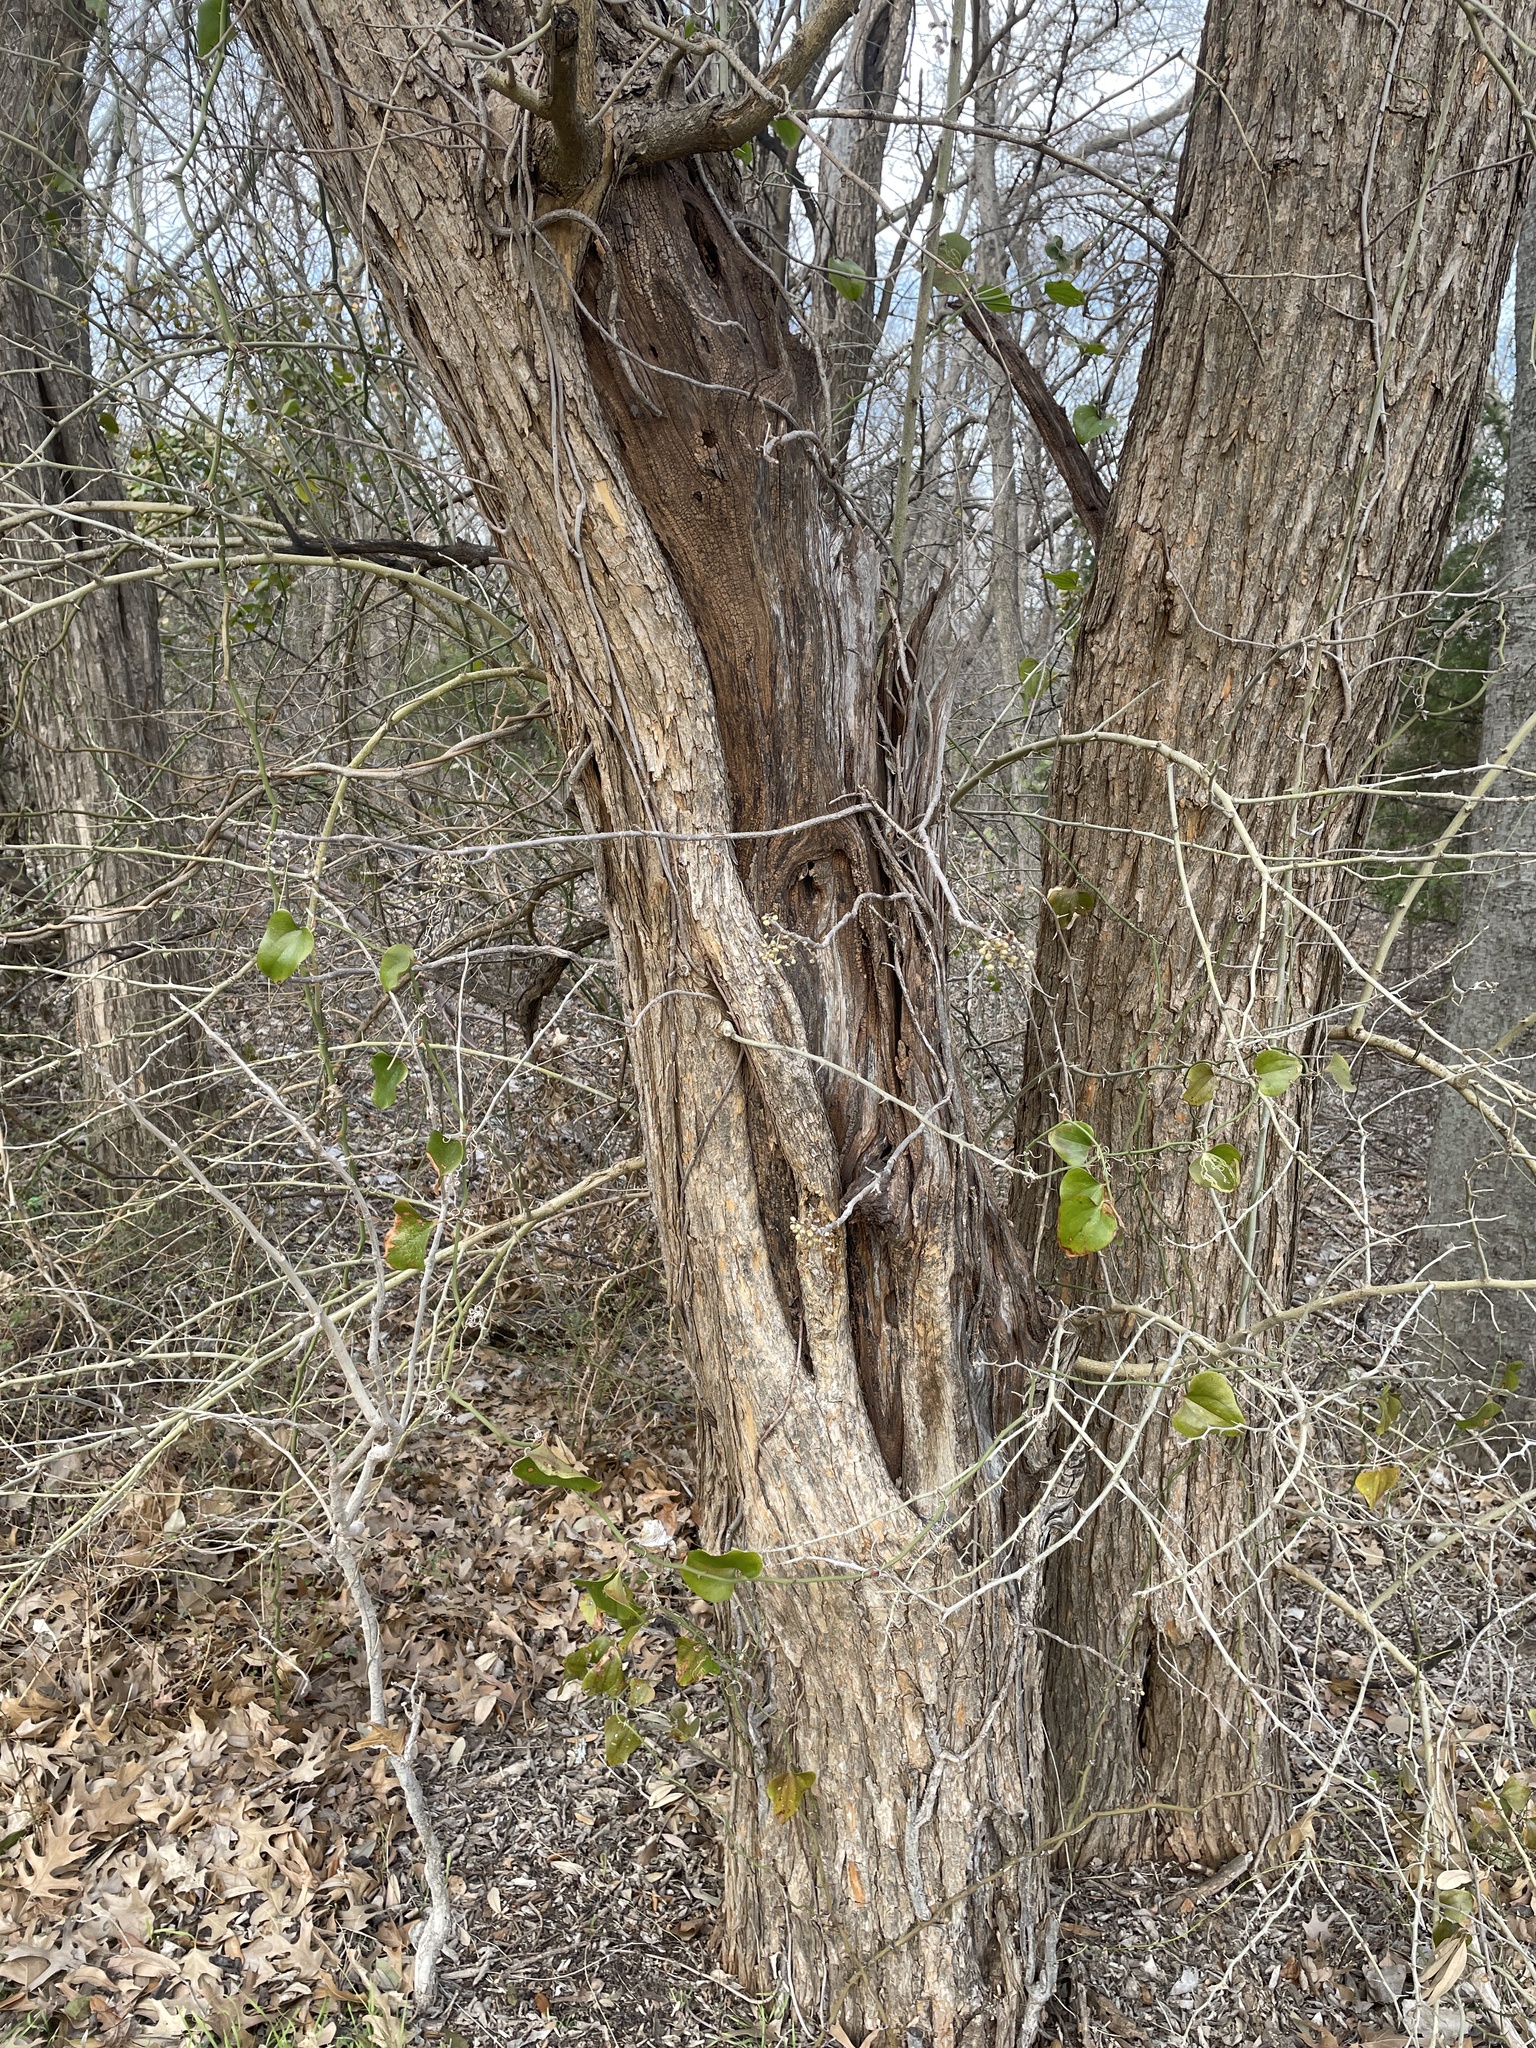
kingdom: Plantae
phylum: Tracheophyta
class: Magnoliopsida
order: Sapindales
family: Anacardiaceae
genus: Toxicodendron
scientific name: Toxicodendron radicans
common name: Poison ivy
